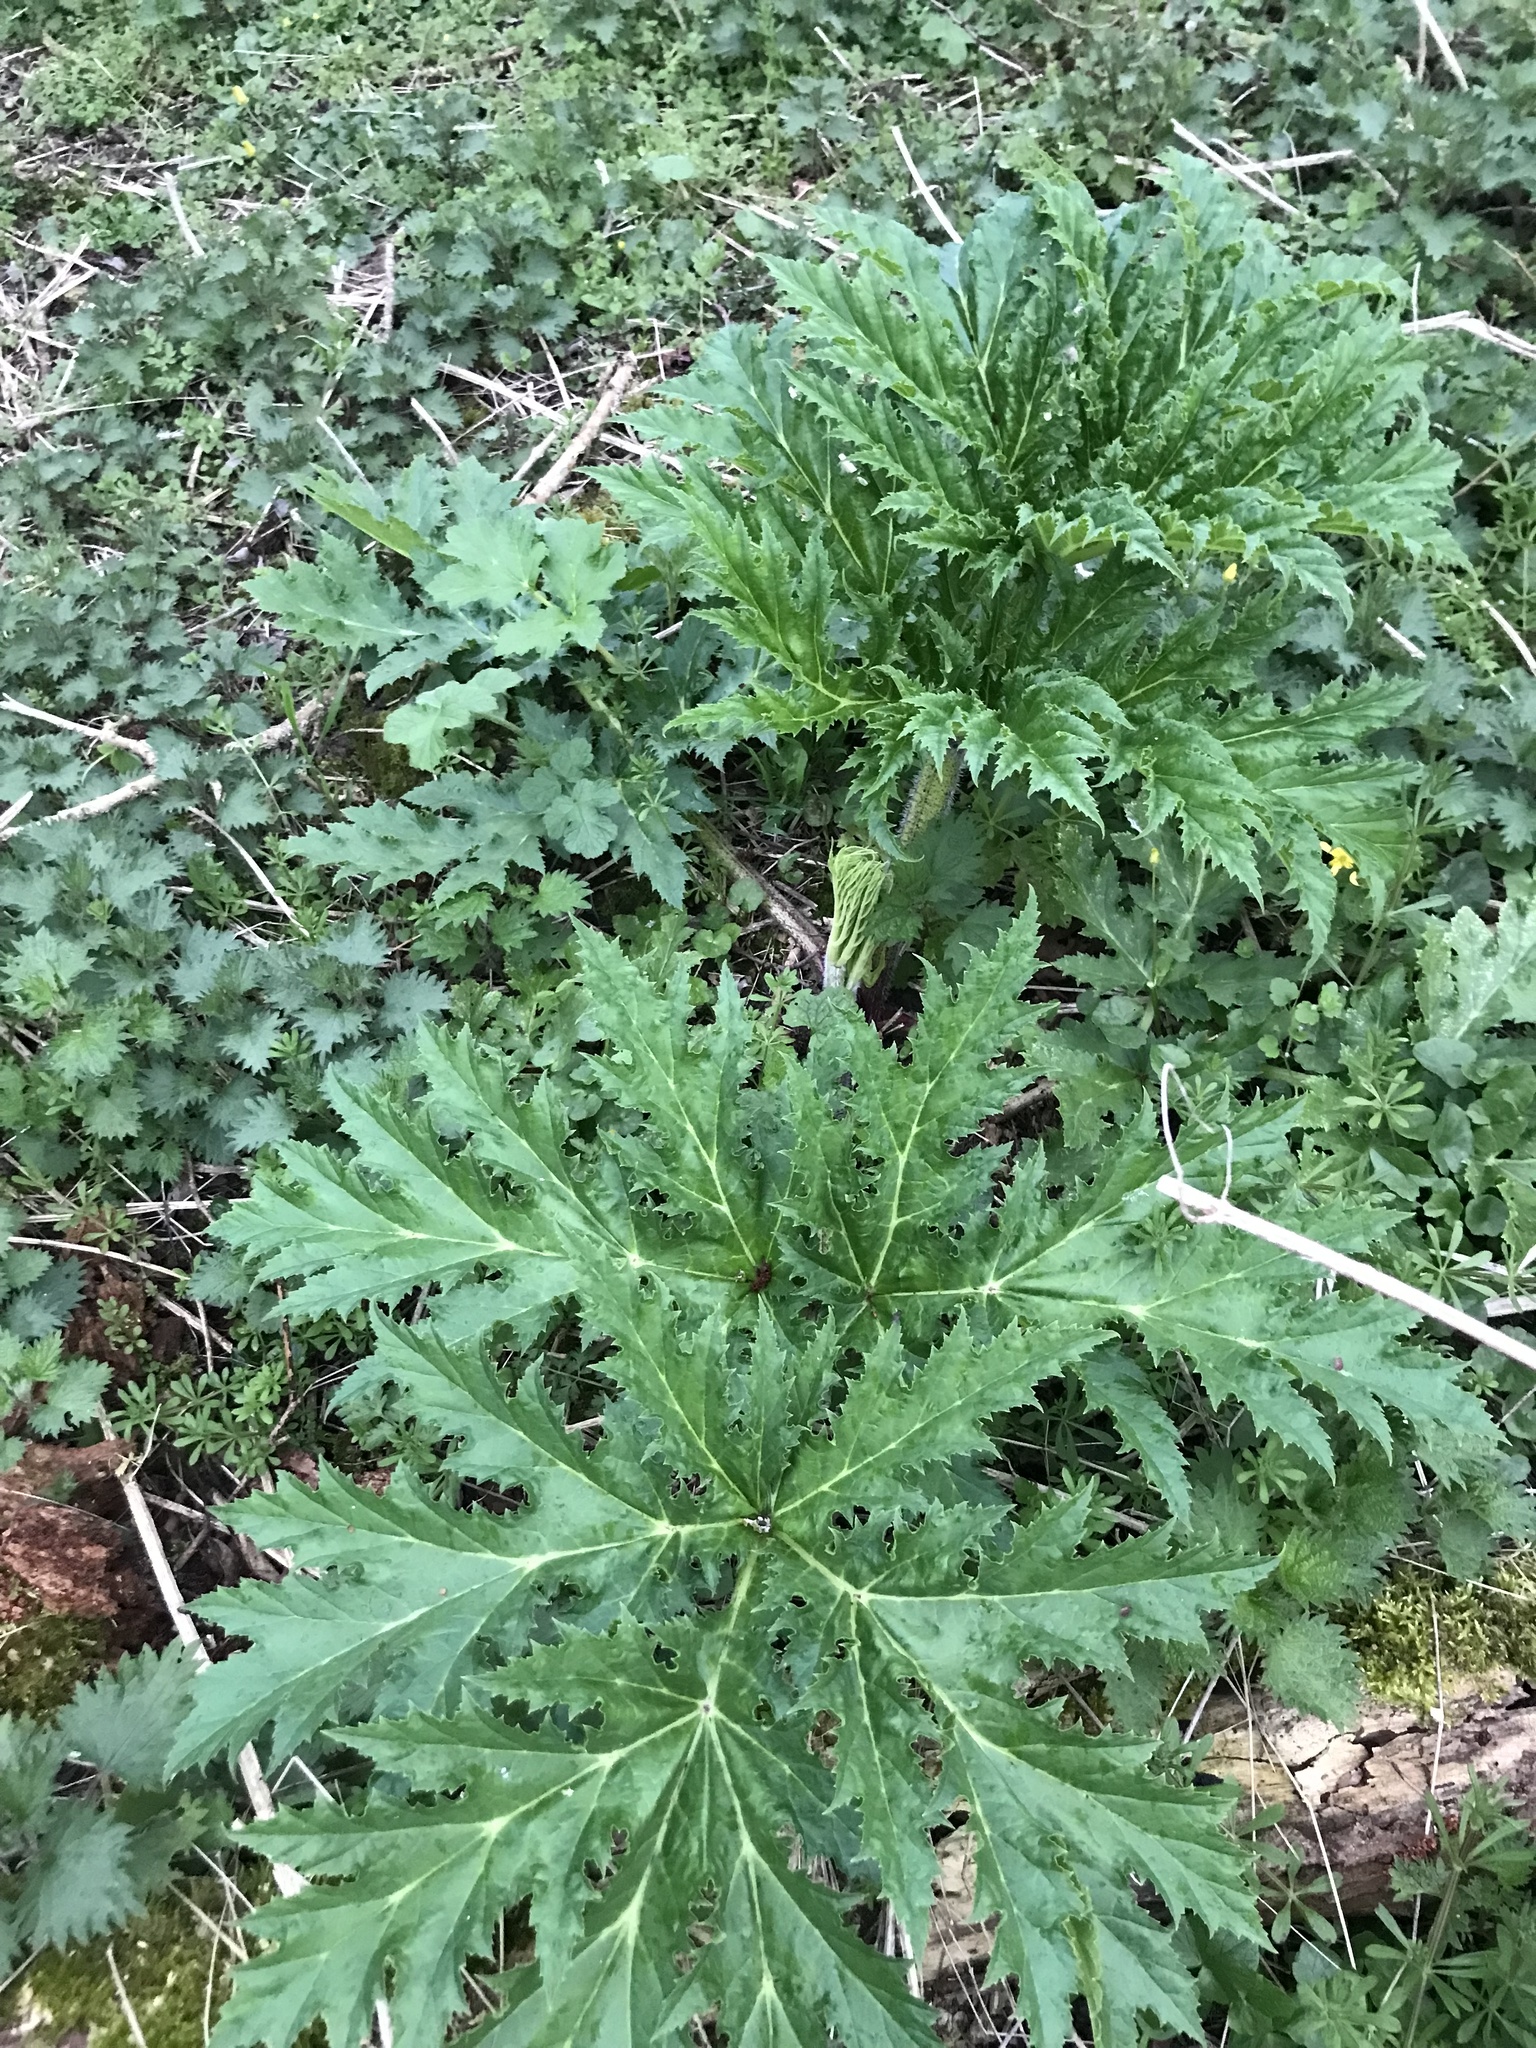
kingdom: Plantae
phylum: Tracheophyta
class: Magnoliopsida
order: Apiales
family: Apiaceae
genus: Heracleum
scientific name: Heracleum mantegazzianum
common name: Giant hogweed
